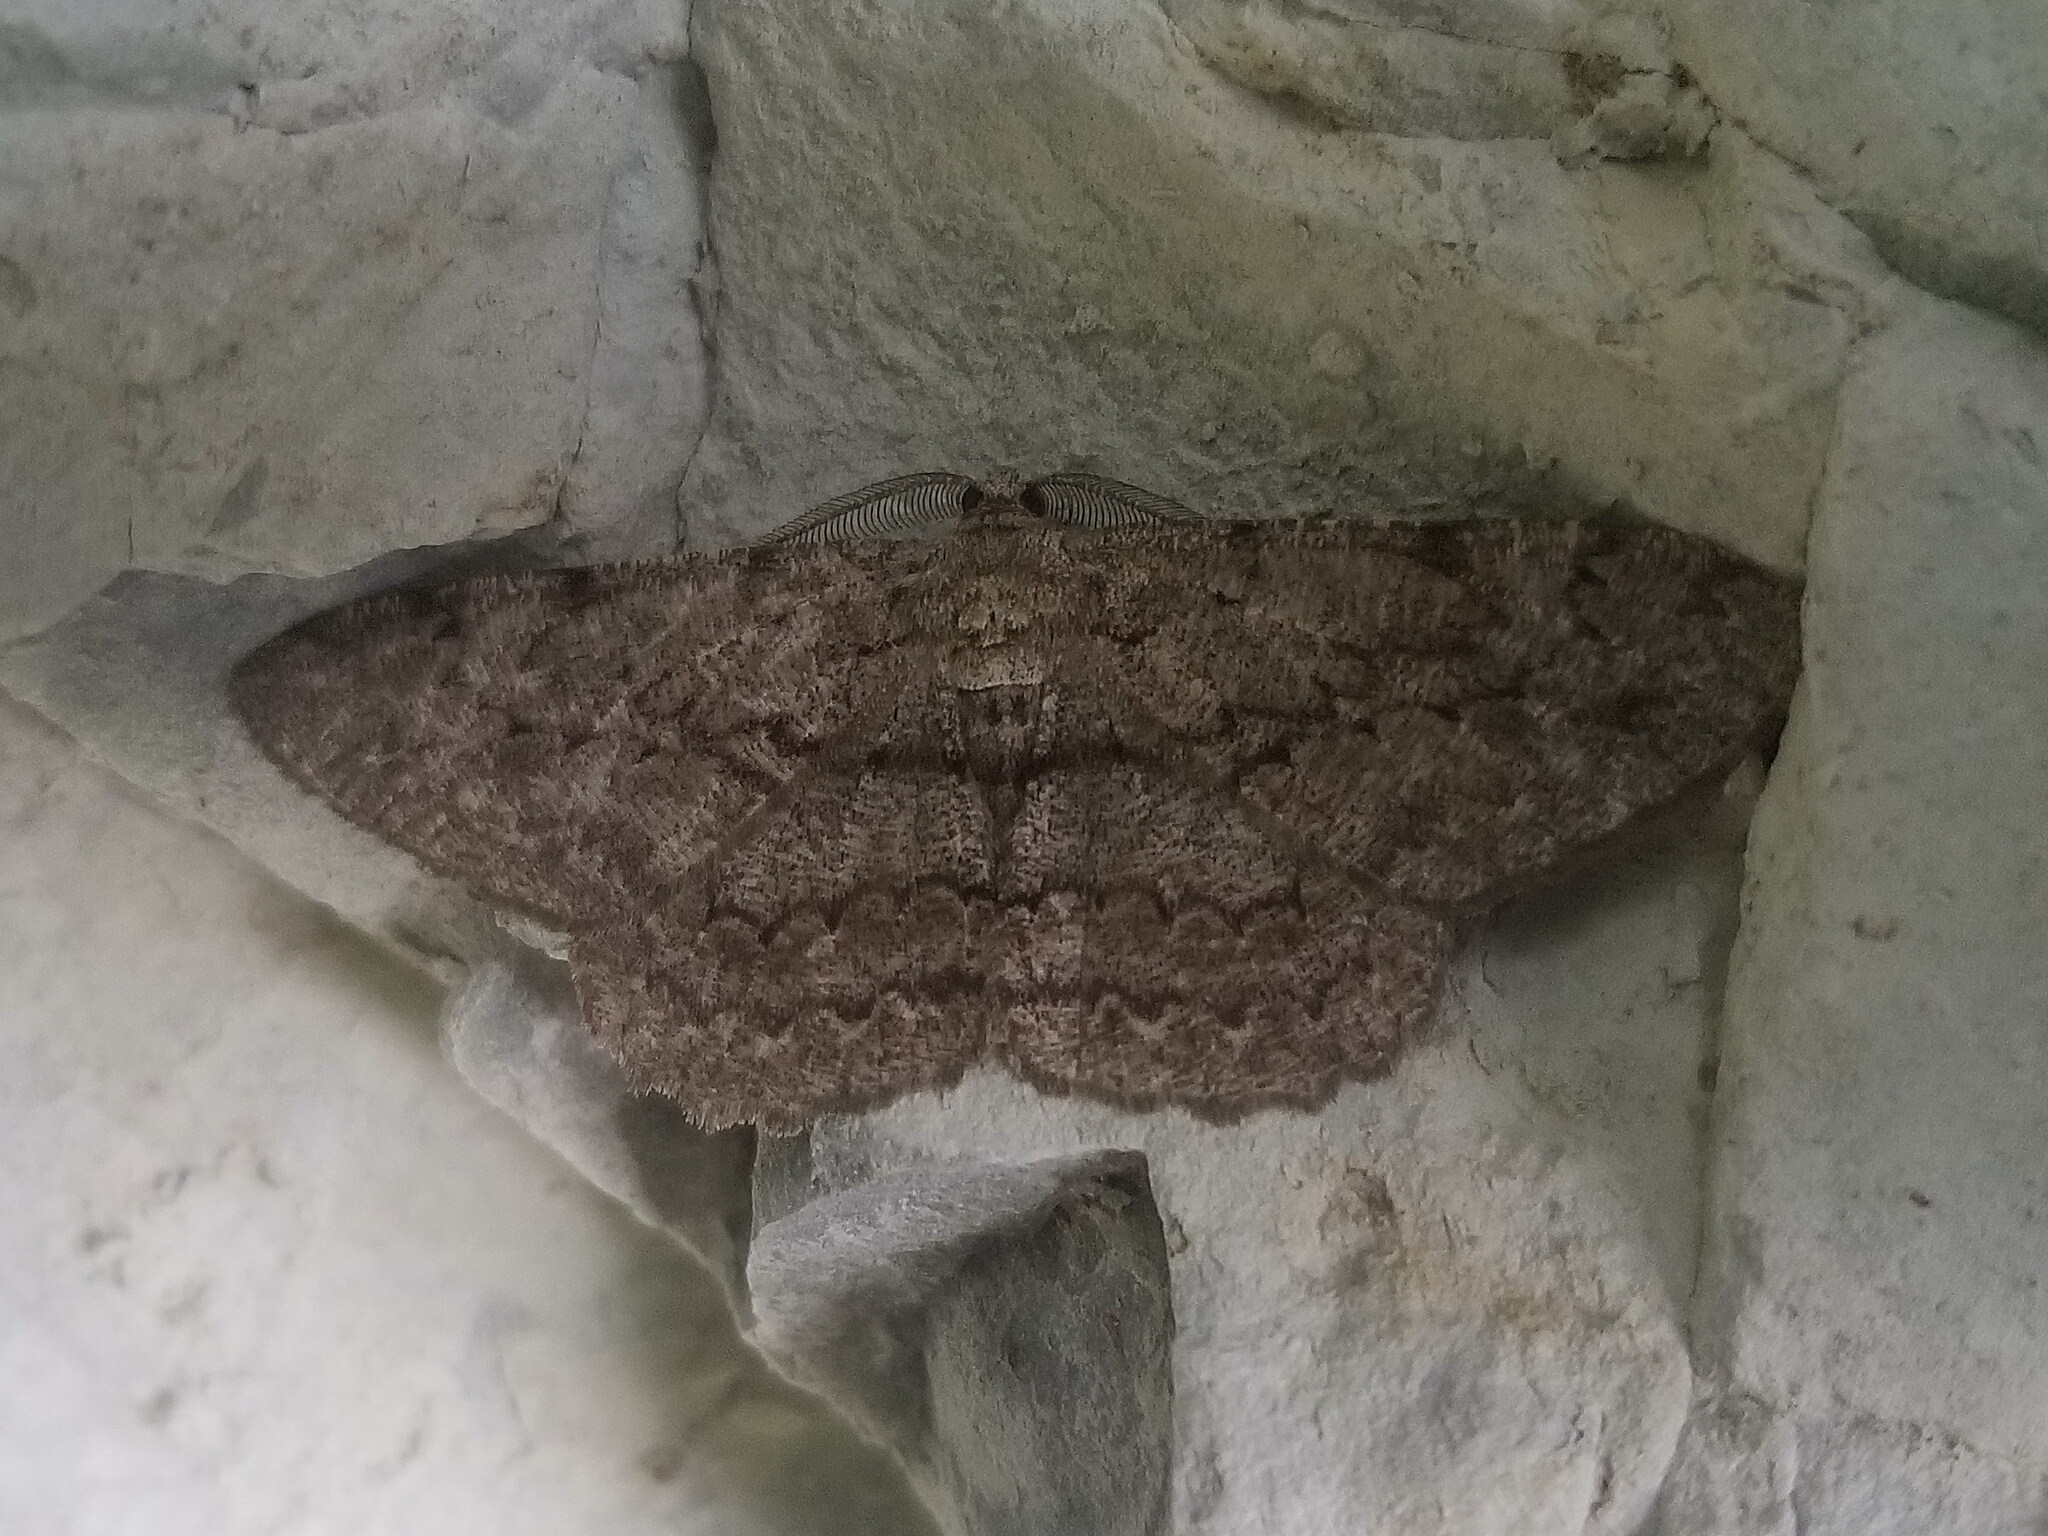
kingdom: Animalia
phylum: Arthropoda
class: Insecta
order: Lepidoptera
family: Geometridae
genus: Hypomecis
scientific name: Hypomecis punctinalis
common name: Pale oak beauty
